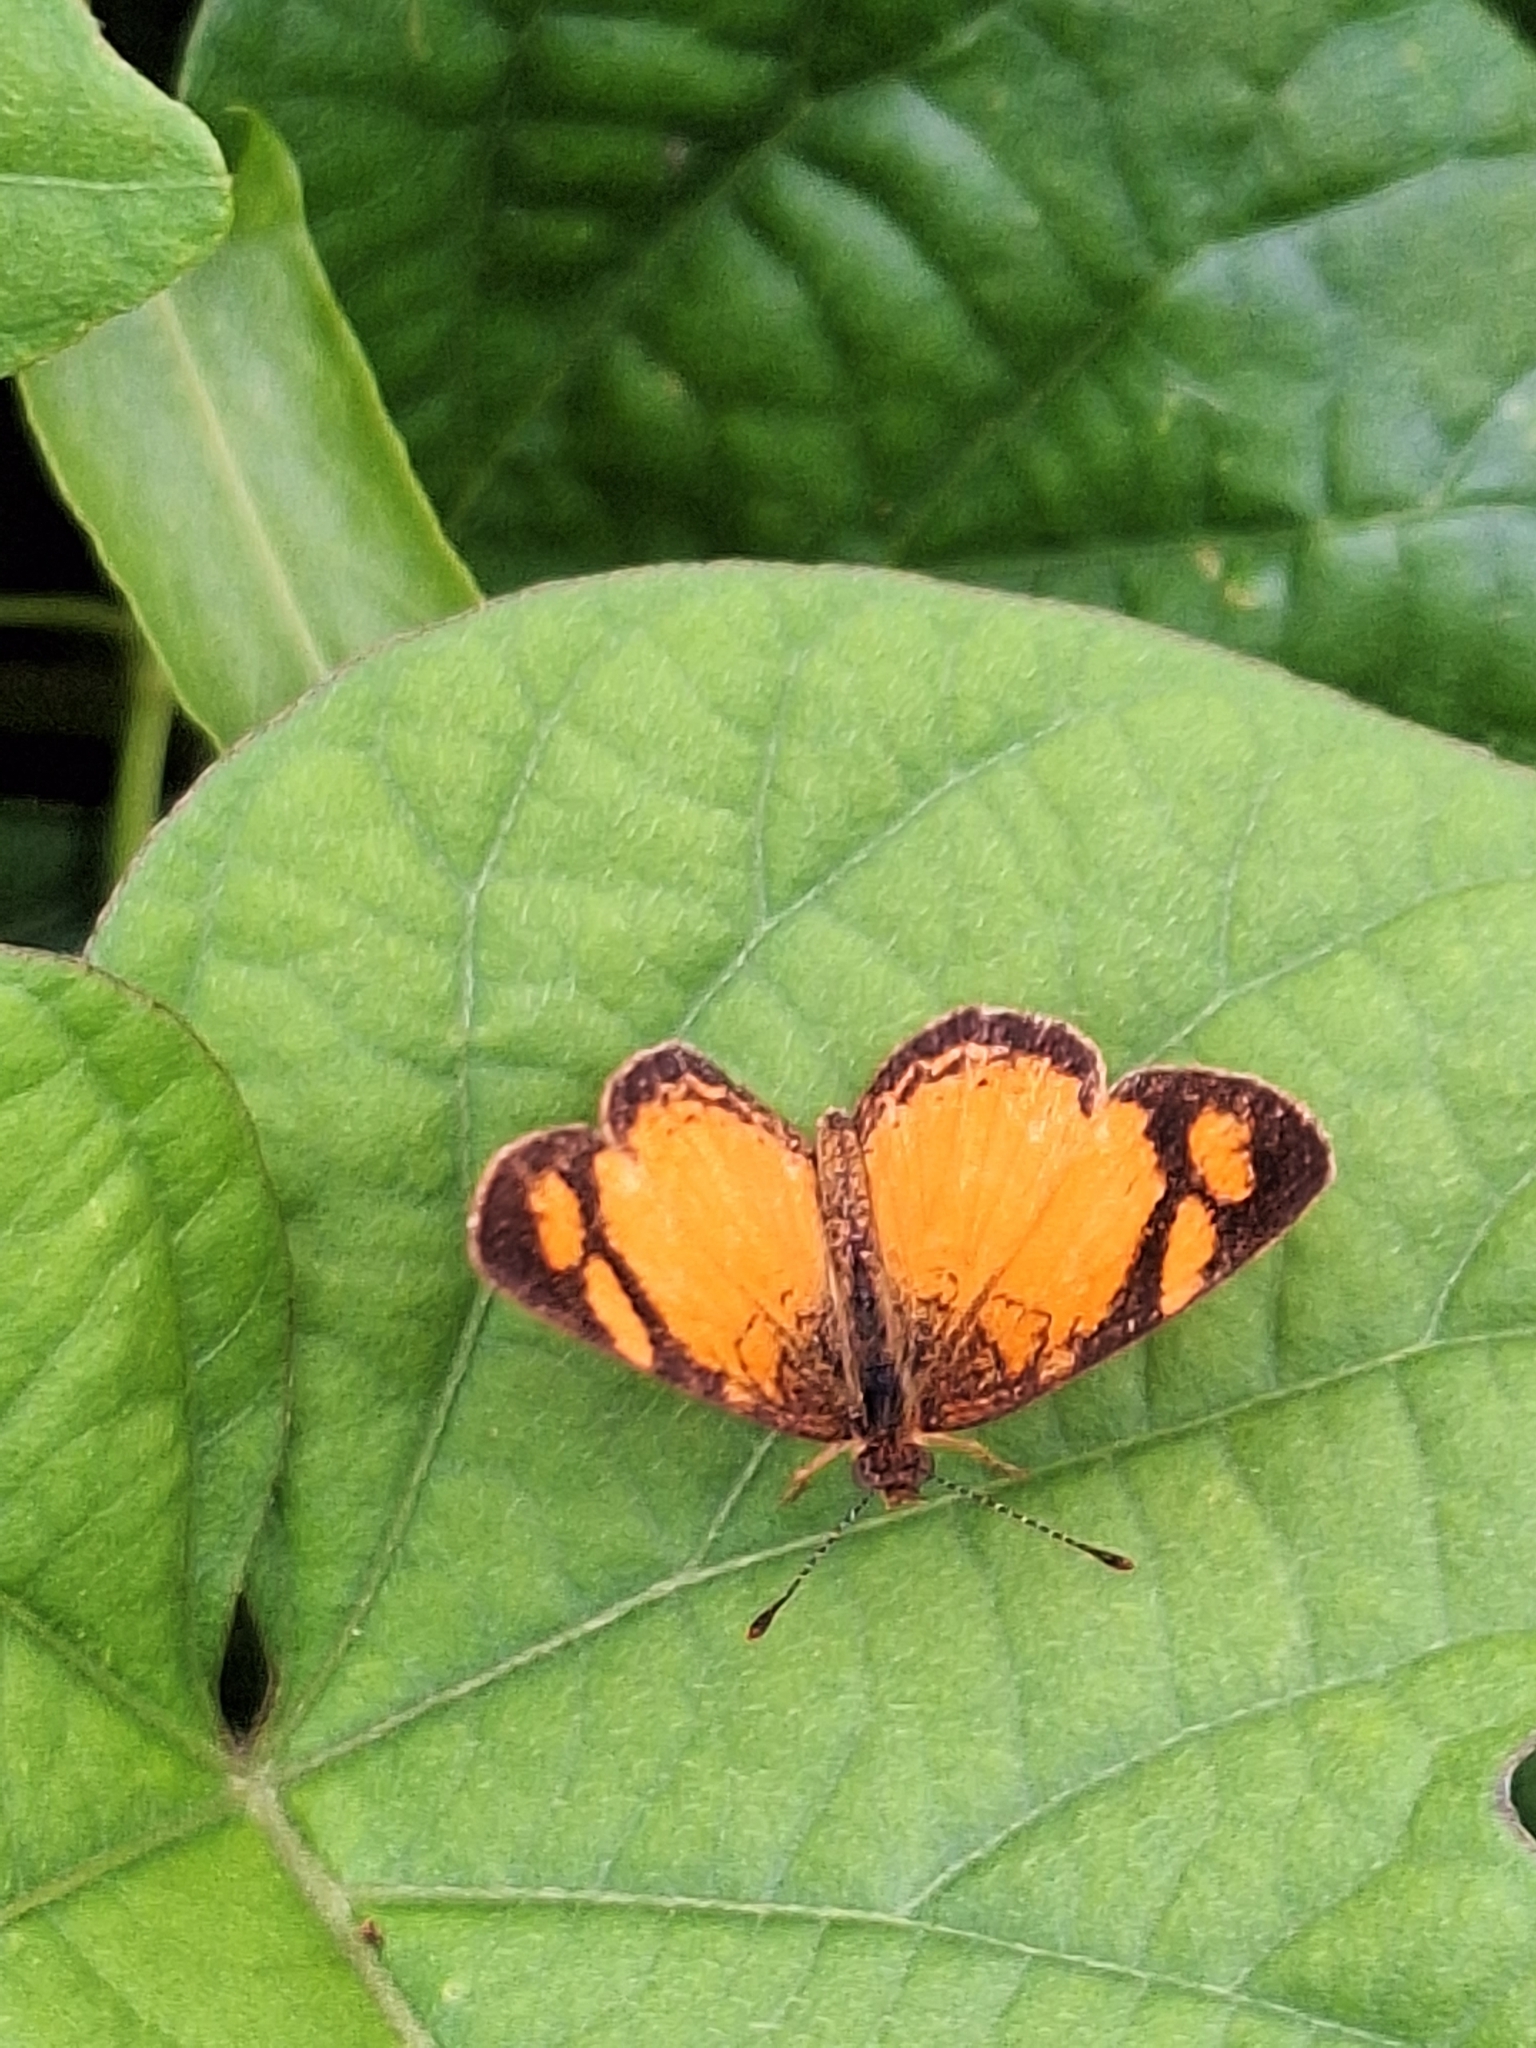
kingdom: Animalia
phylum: Arthropoda
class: Insecta
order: Lepidoptera
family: Nymphalidae
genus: Tegosa
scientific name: Tegosa claudina
